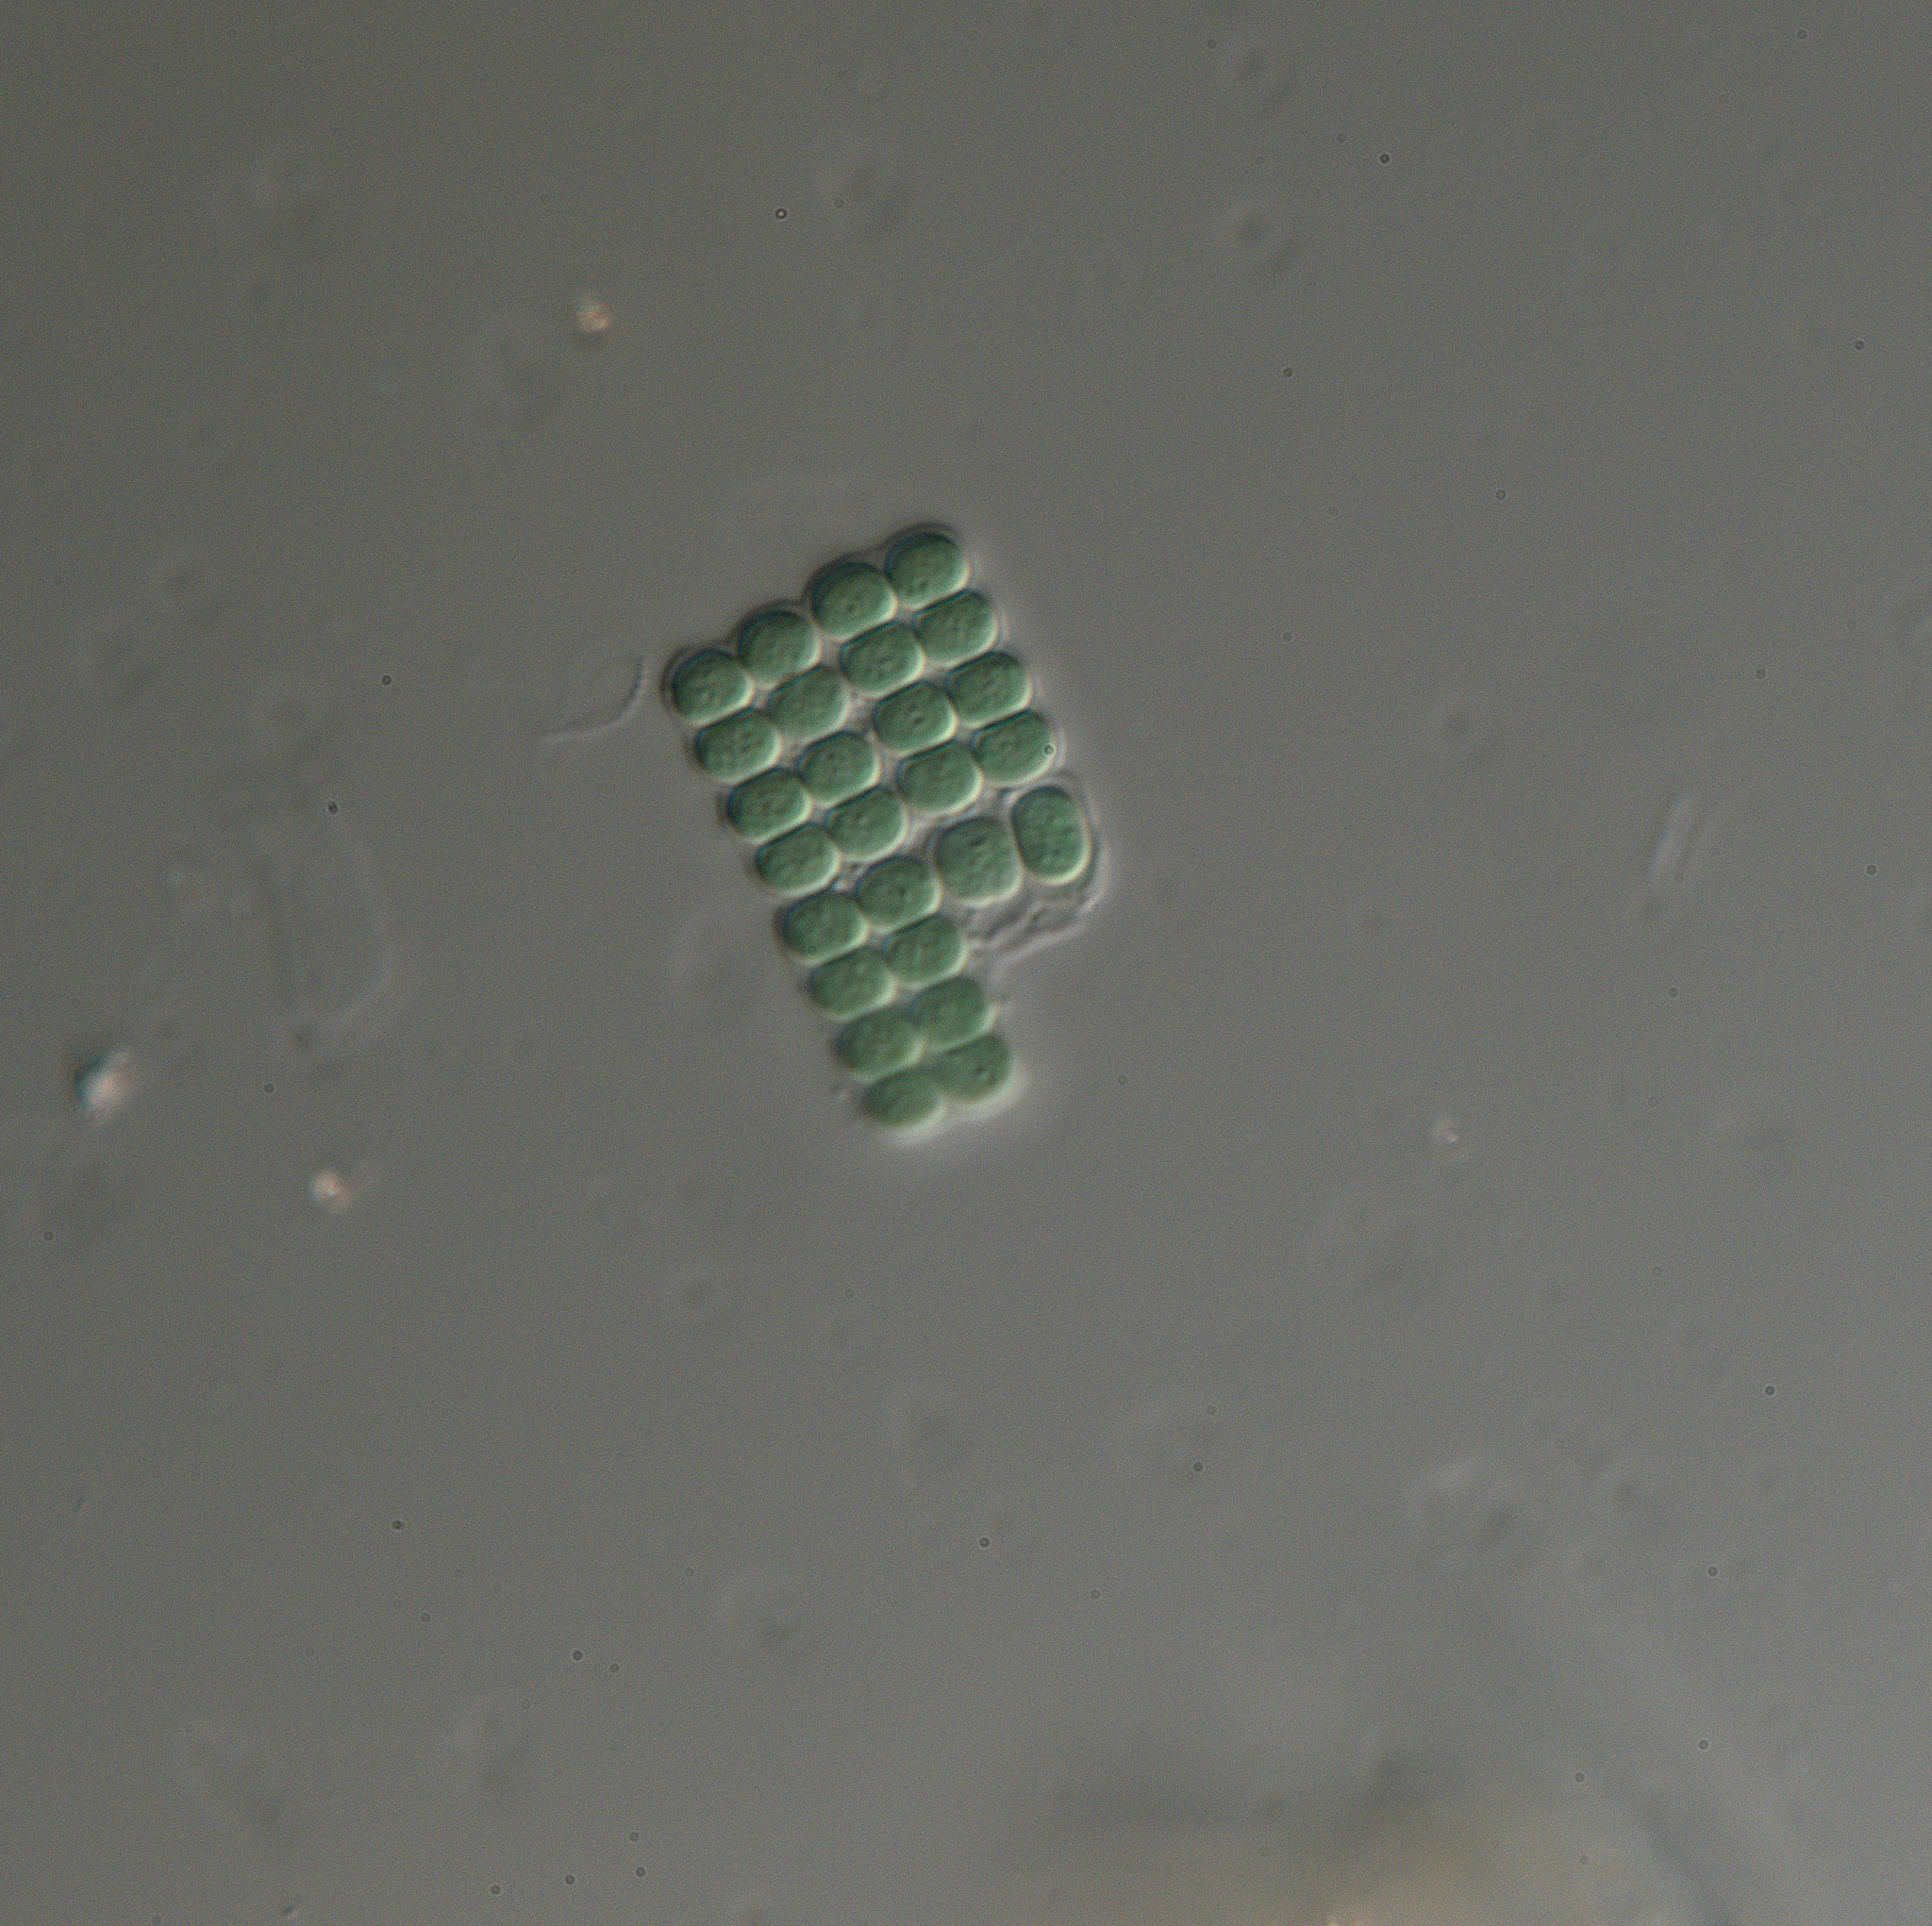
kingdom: Bacteria
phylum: Cyanobacteria
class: Cyanobacteriia
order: Synechococcales
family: Merismopediaceae
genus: Merismopedia
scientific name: Merismopedia
